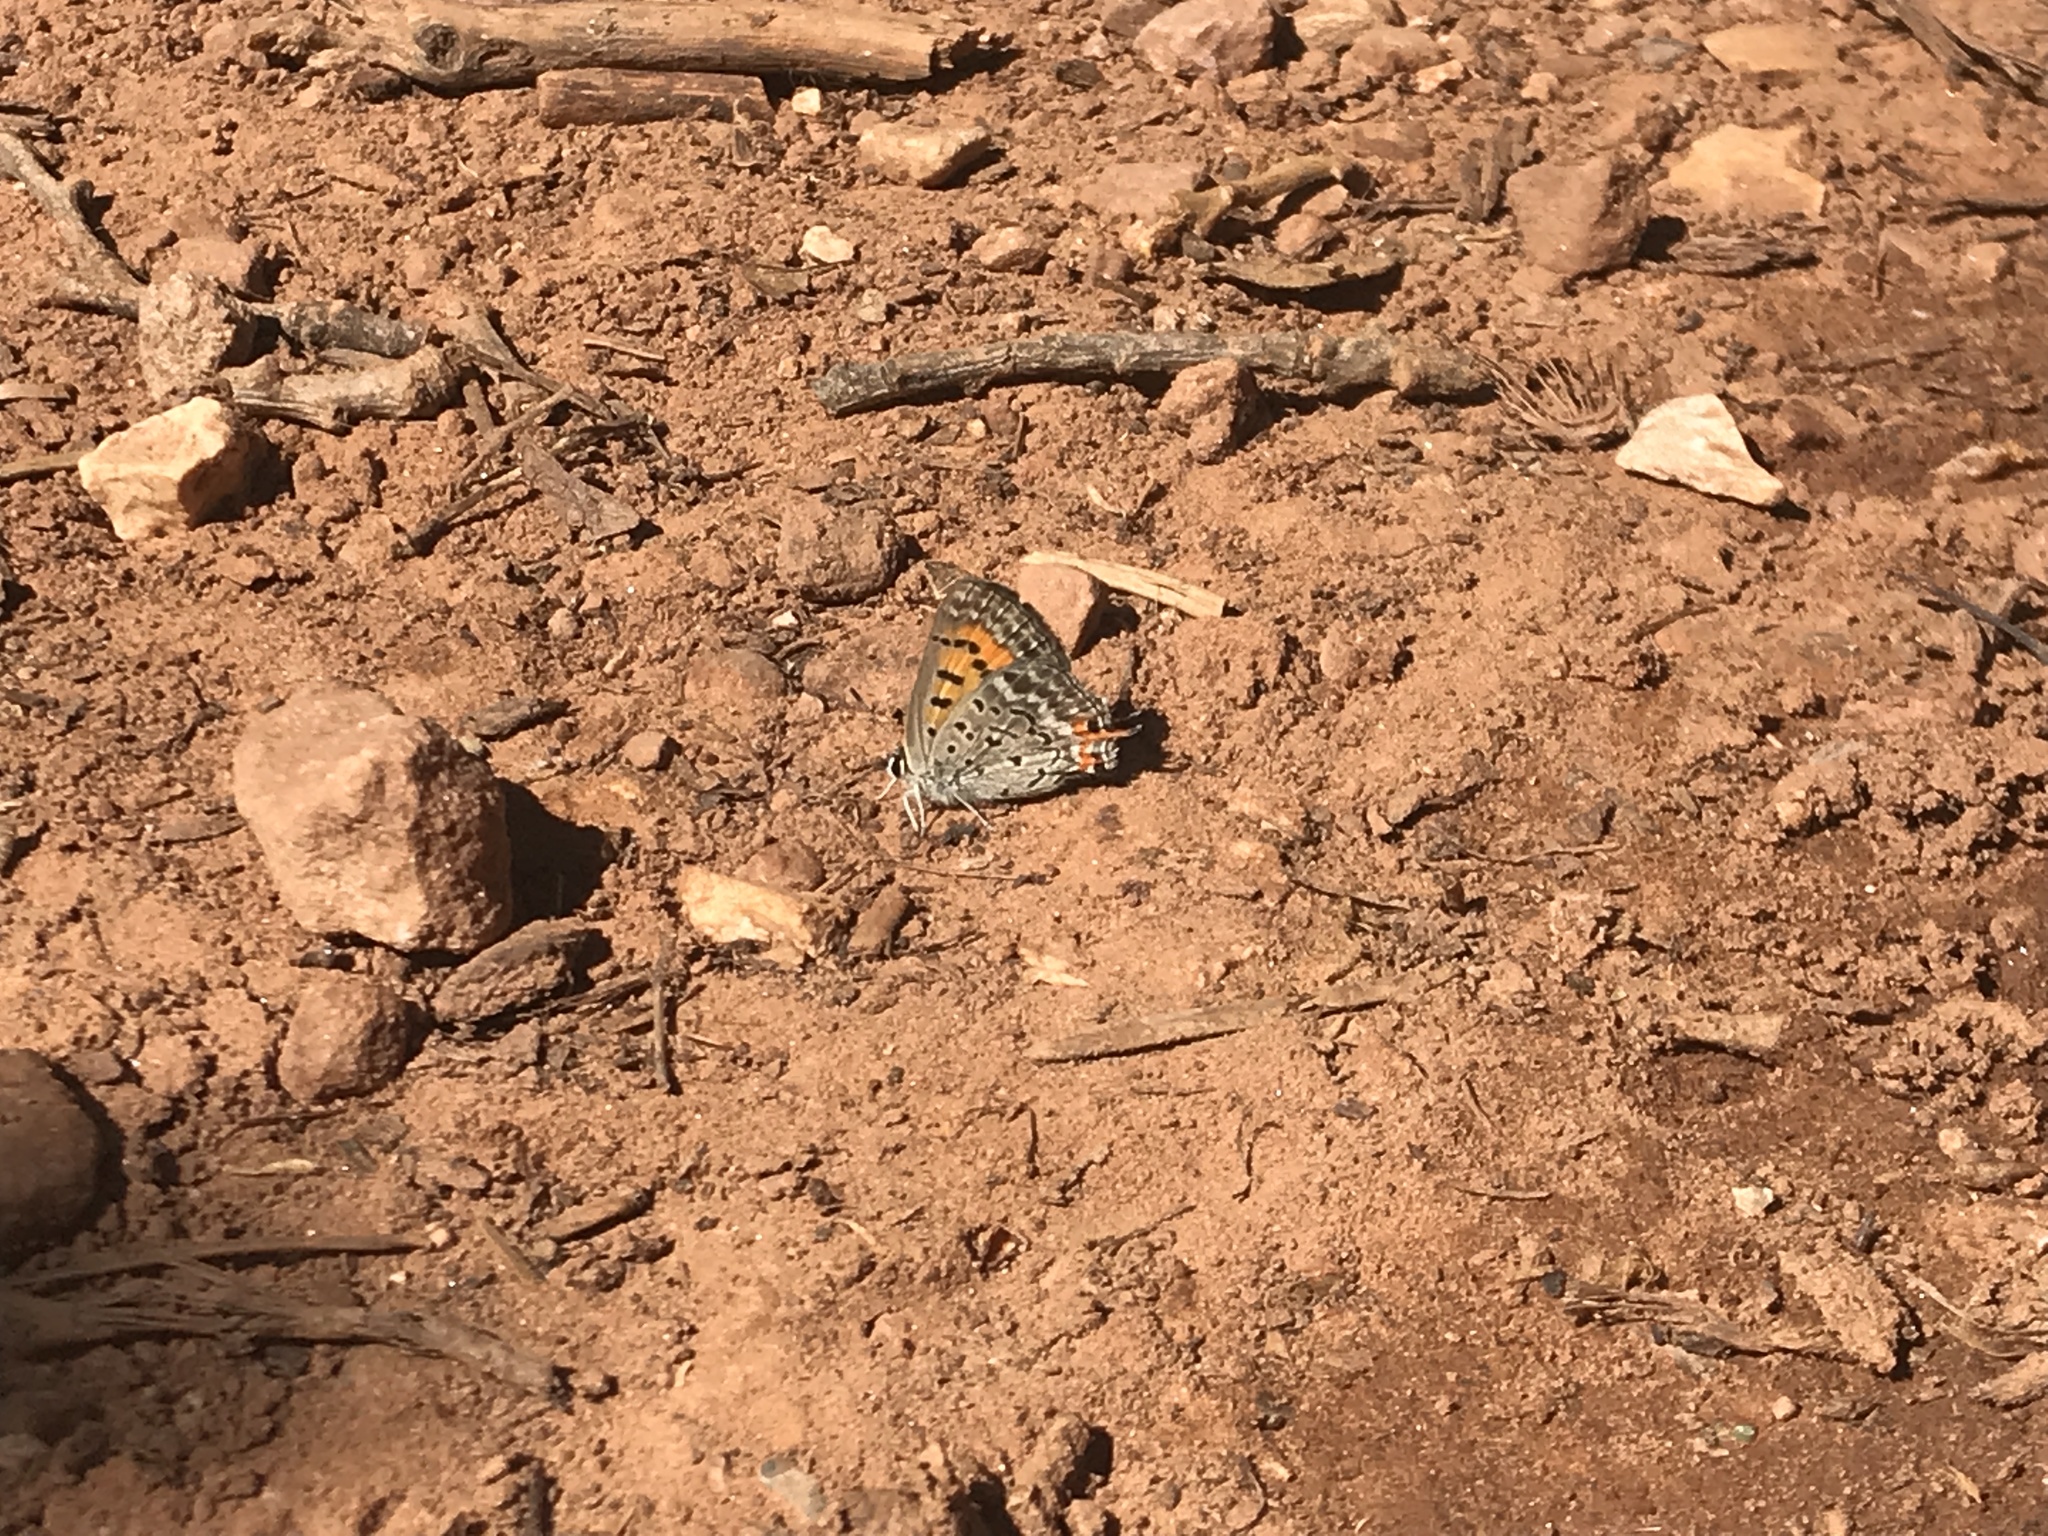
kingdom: Animalia
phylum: Arthropoda
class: Insecta
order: Lepidoptera
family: Lycaenidae
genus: Tharsalea
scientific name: Tharsalea arota
